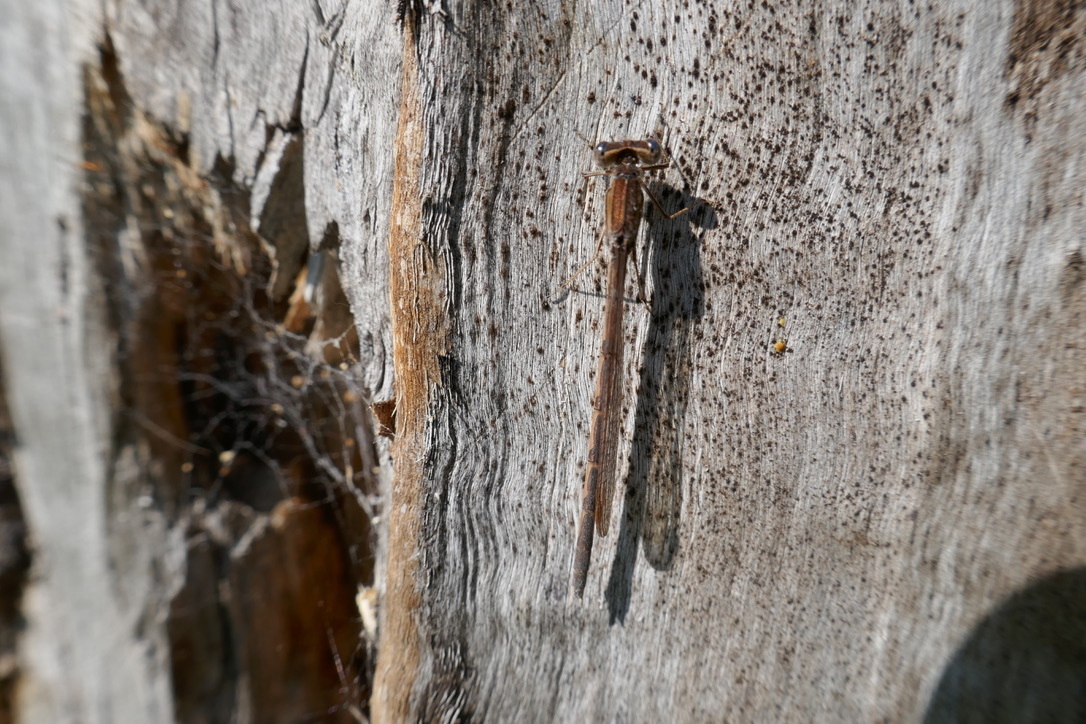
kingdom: Animalia
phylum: Arthropoda
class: Insecta
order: Odonata
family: Lestidae
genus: Sympecma
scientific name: Sympecma fusca
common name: Common winter damsel
